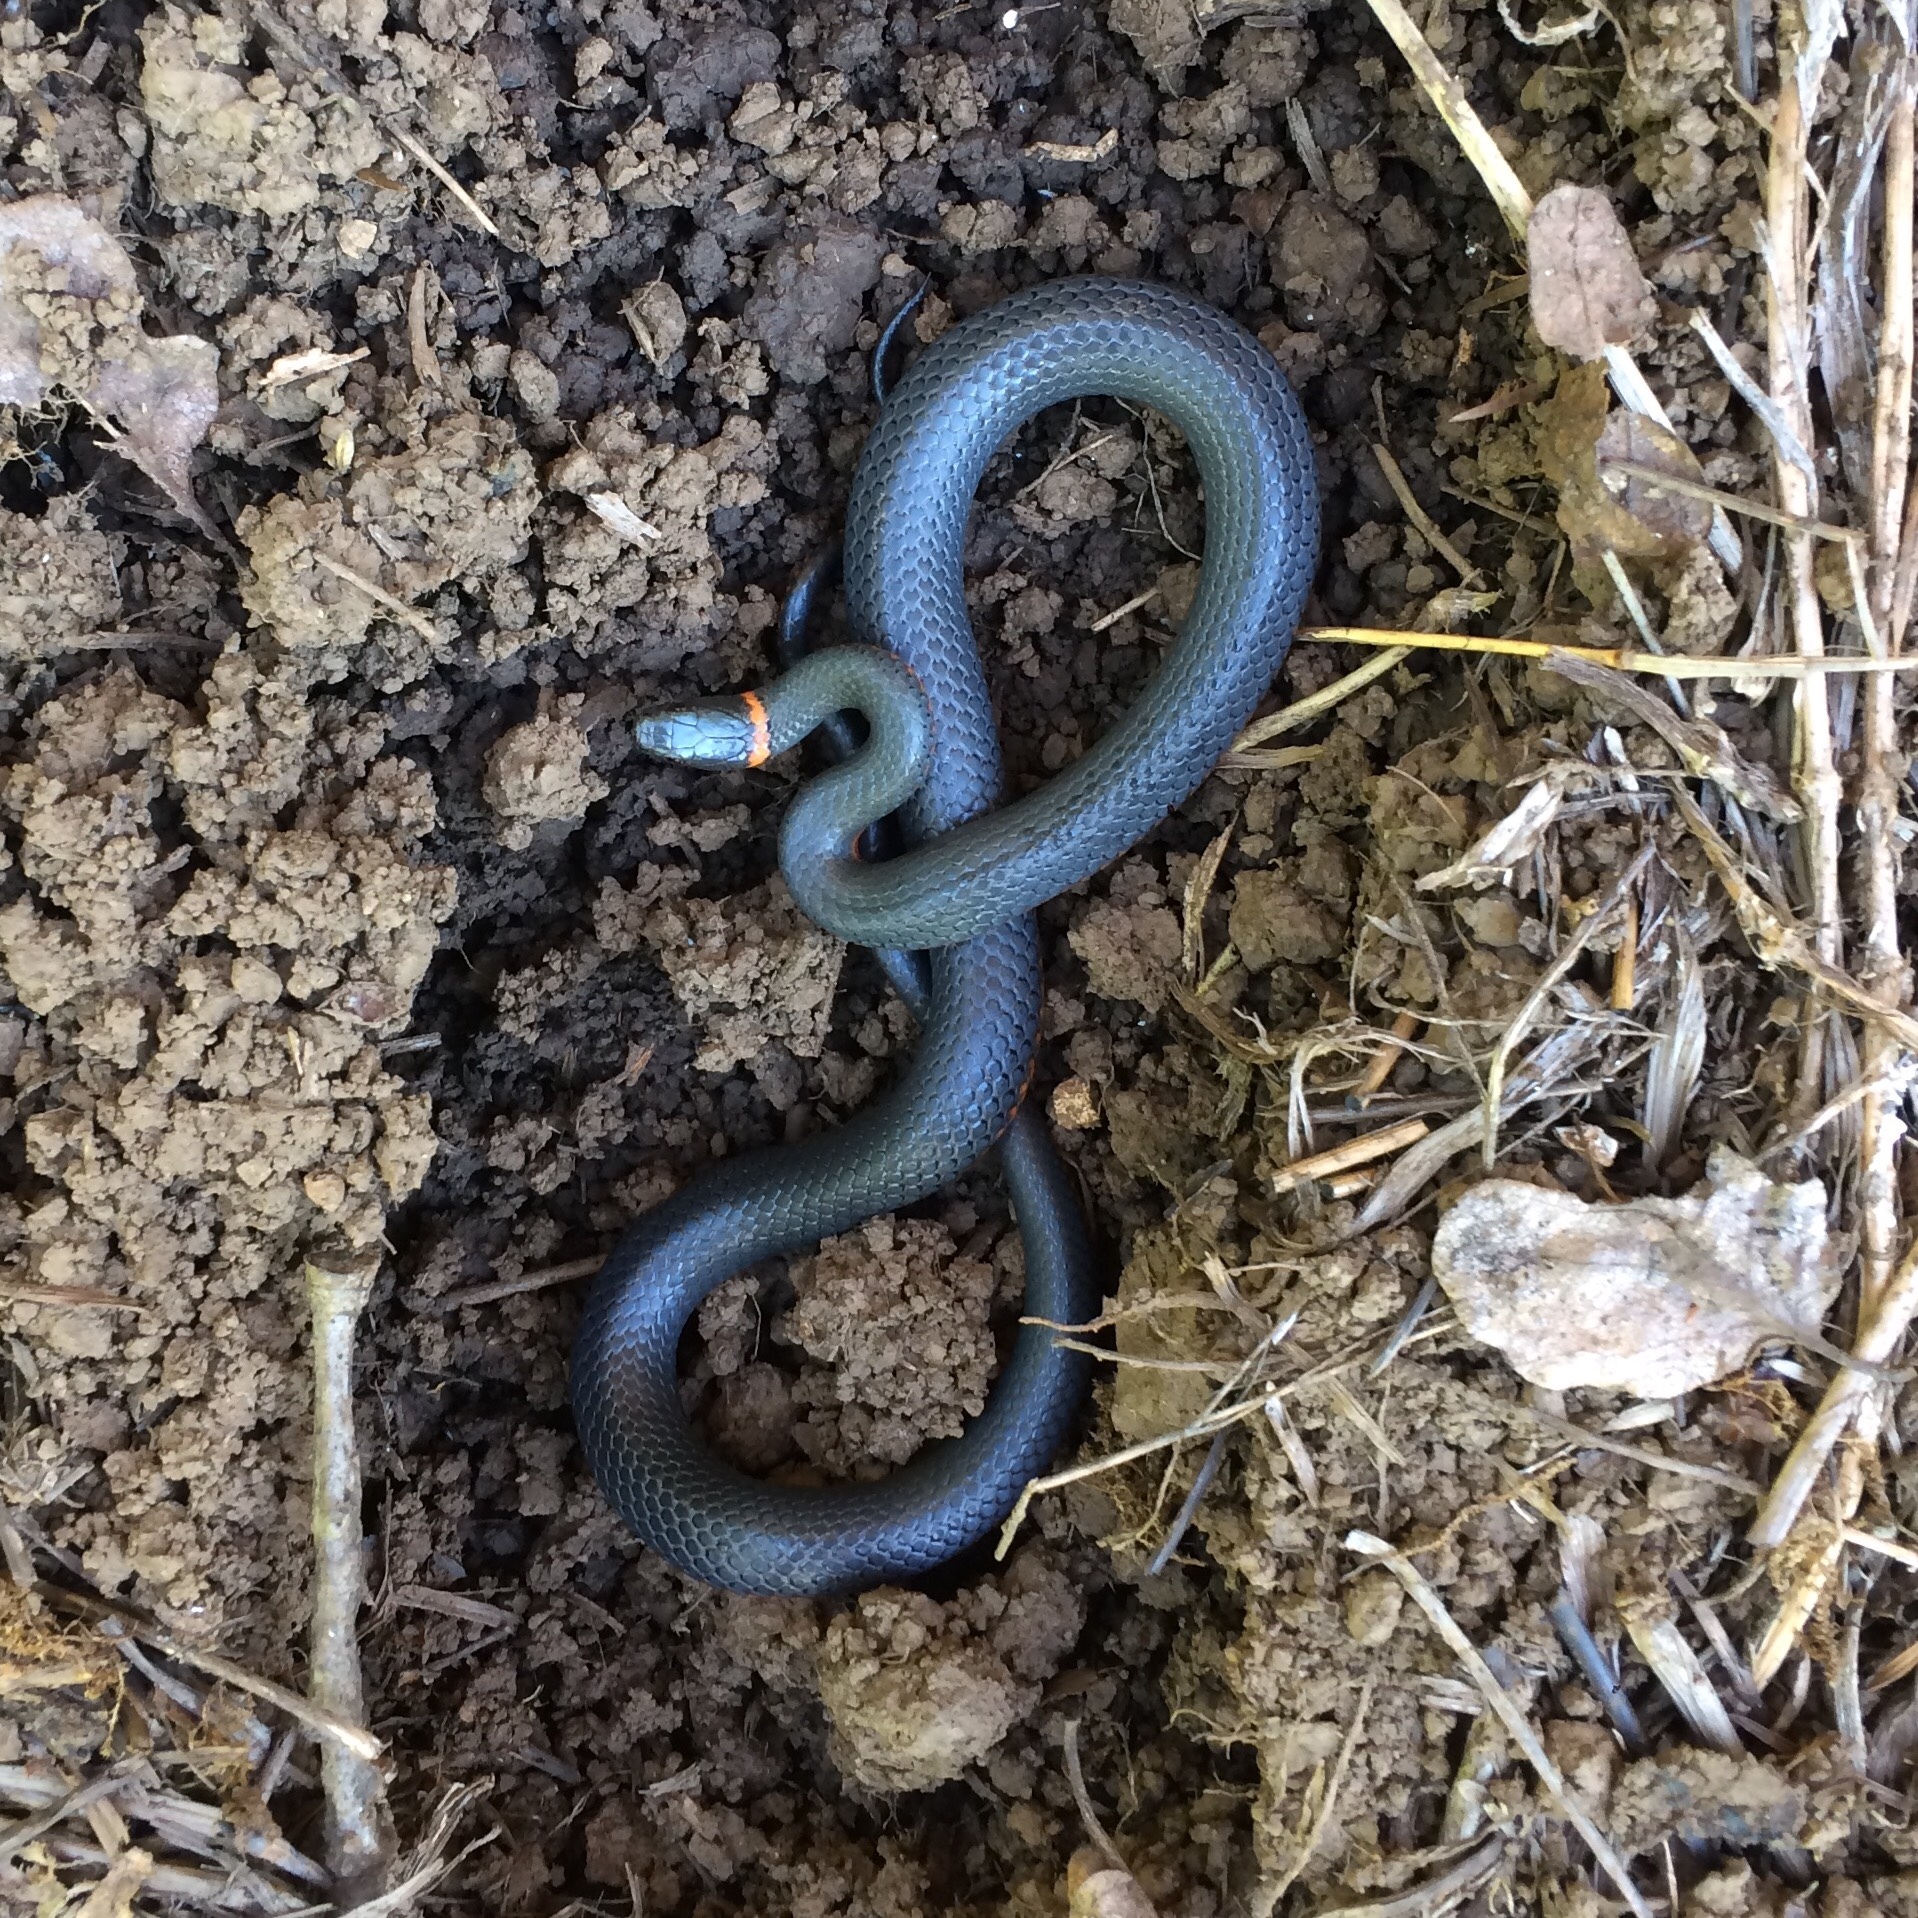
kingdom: Animalia
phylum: Chordata
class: Squamata
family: Colubridae
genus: Diadophis
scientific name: Diadophis punctatus
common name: Ringneck snake
